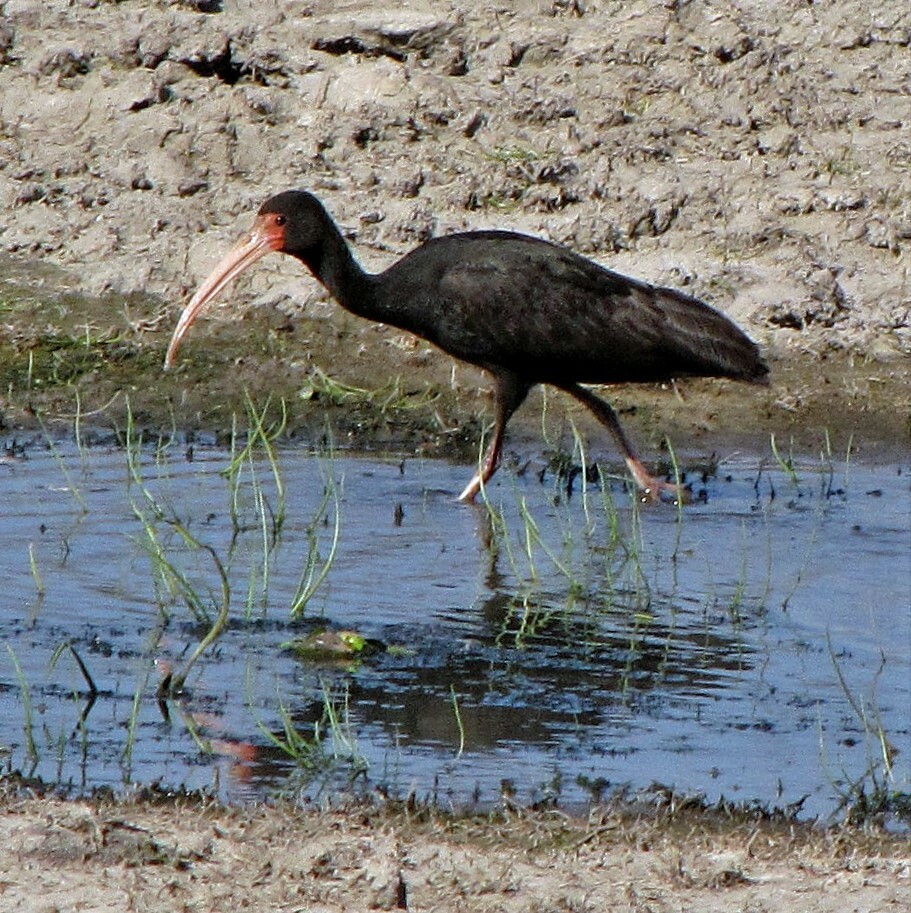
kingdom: Animalia
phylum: Chordata
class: Aves
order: Pelecaniformes
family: Threskiornithidae
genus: Phimosus
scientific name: Phimosus infuscatus
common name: Bare-faced ibis
